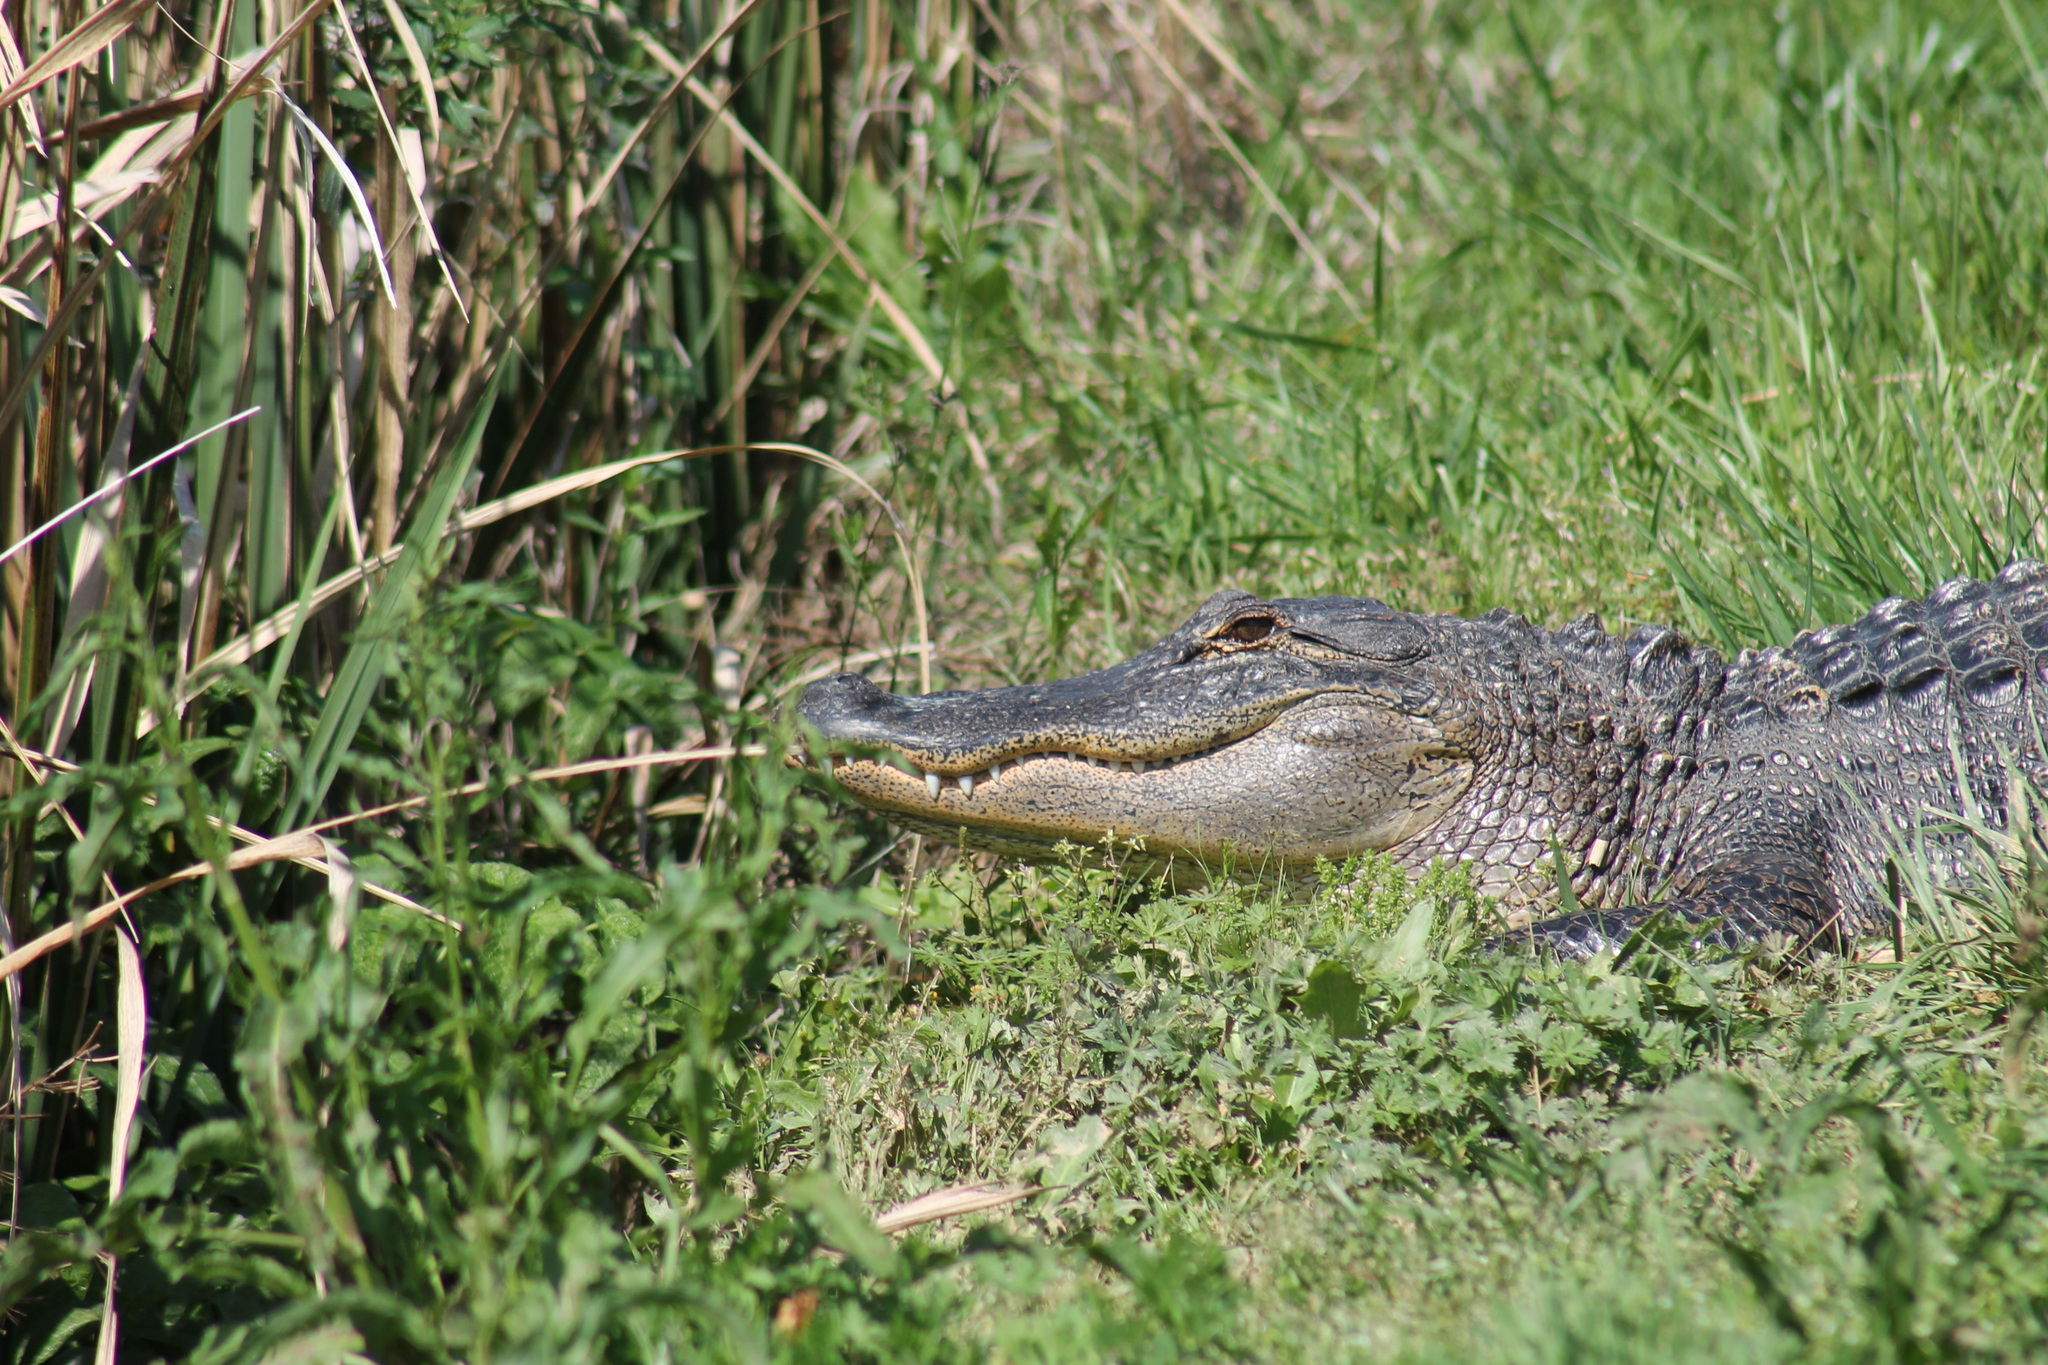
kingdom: Animalia
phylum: Chordata
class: Crocodylia
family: Alligatoridae
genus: Alligator
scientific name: Alligator mississippiensis
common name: American alligator
